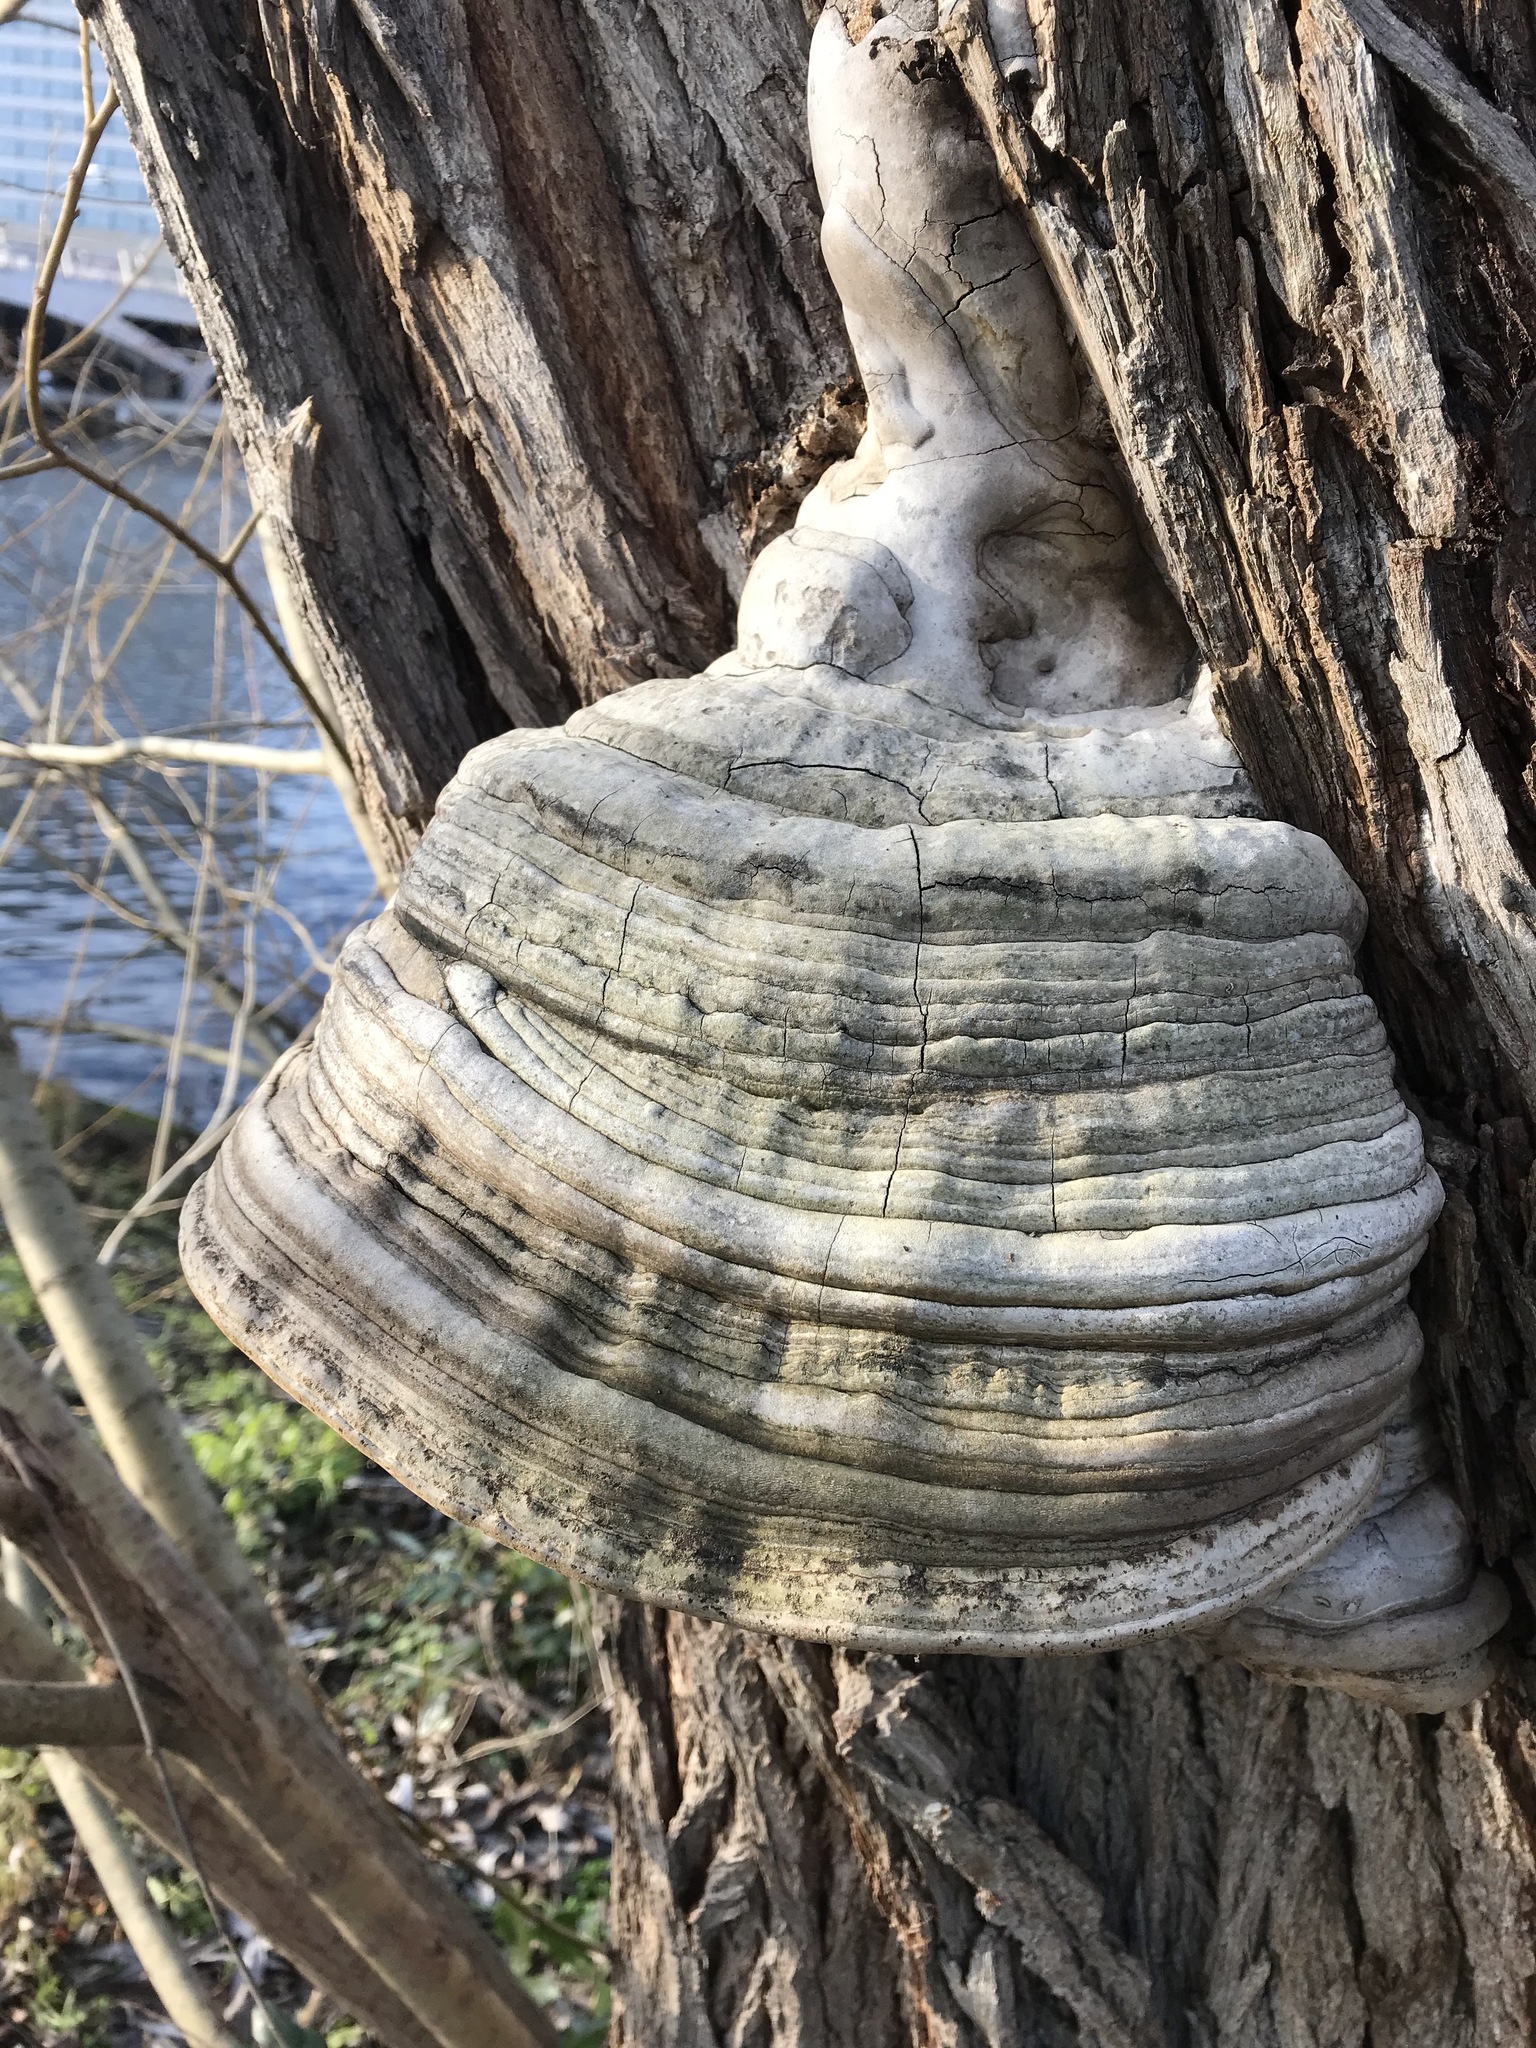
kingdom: Fungi
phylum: Basidiomycota
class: Agaricomycetes
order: Polyporales
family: Polyporaceae
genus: Fomes
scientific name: Fomes fomentarius
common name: Hoof fungus
